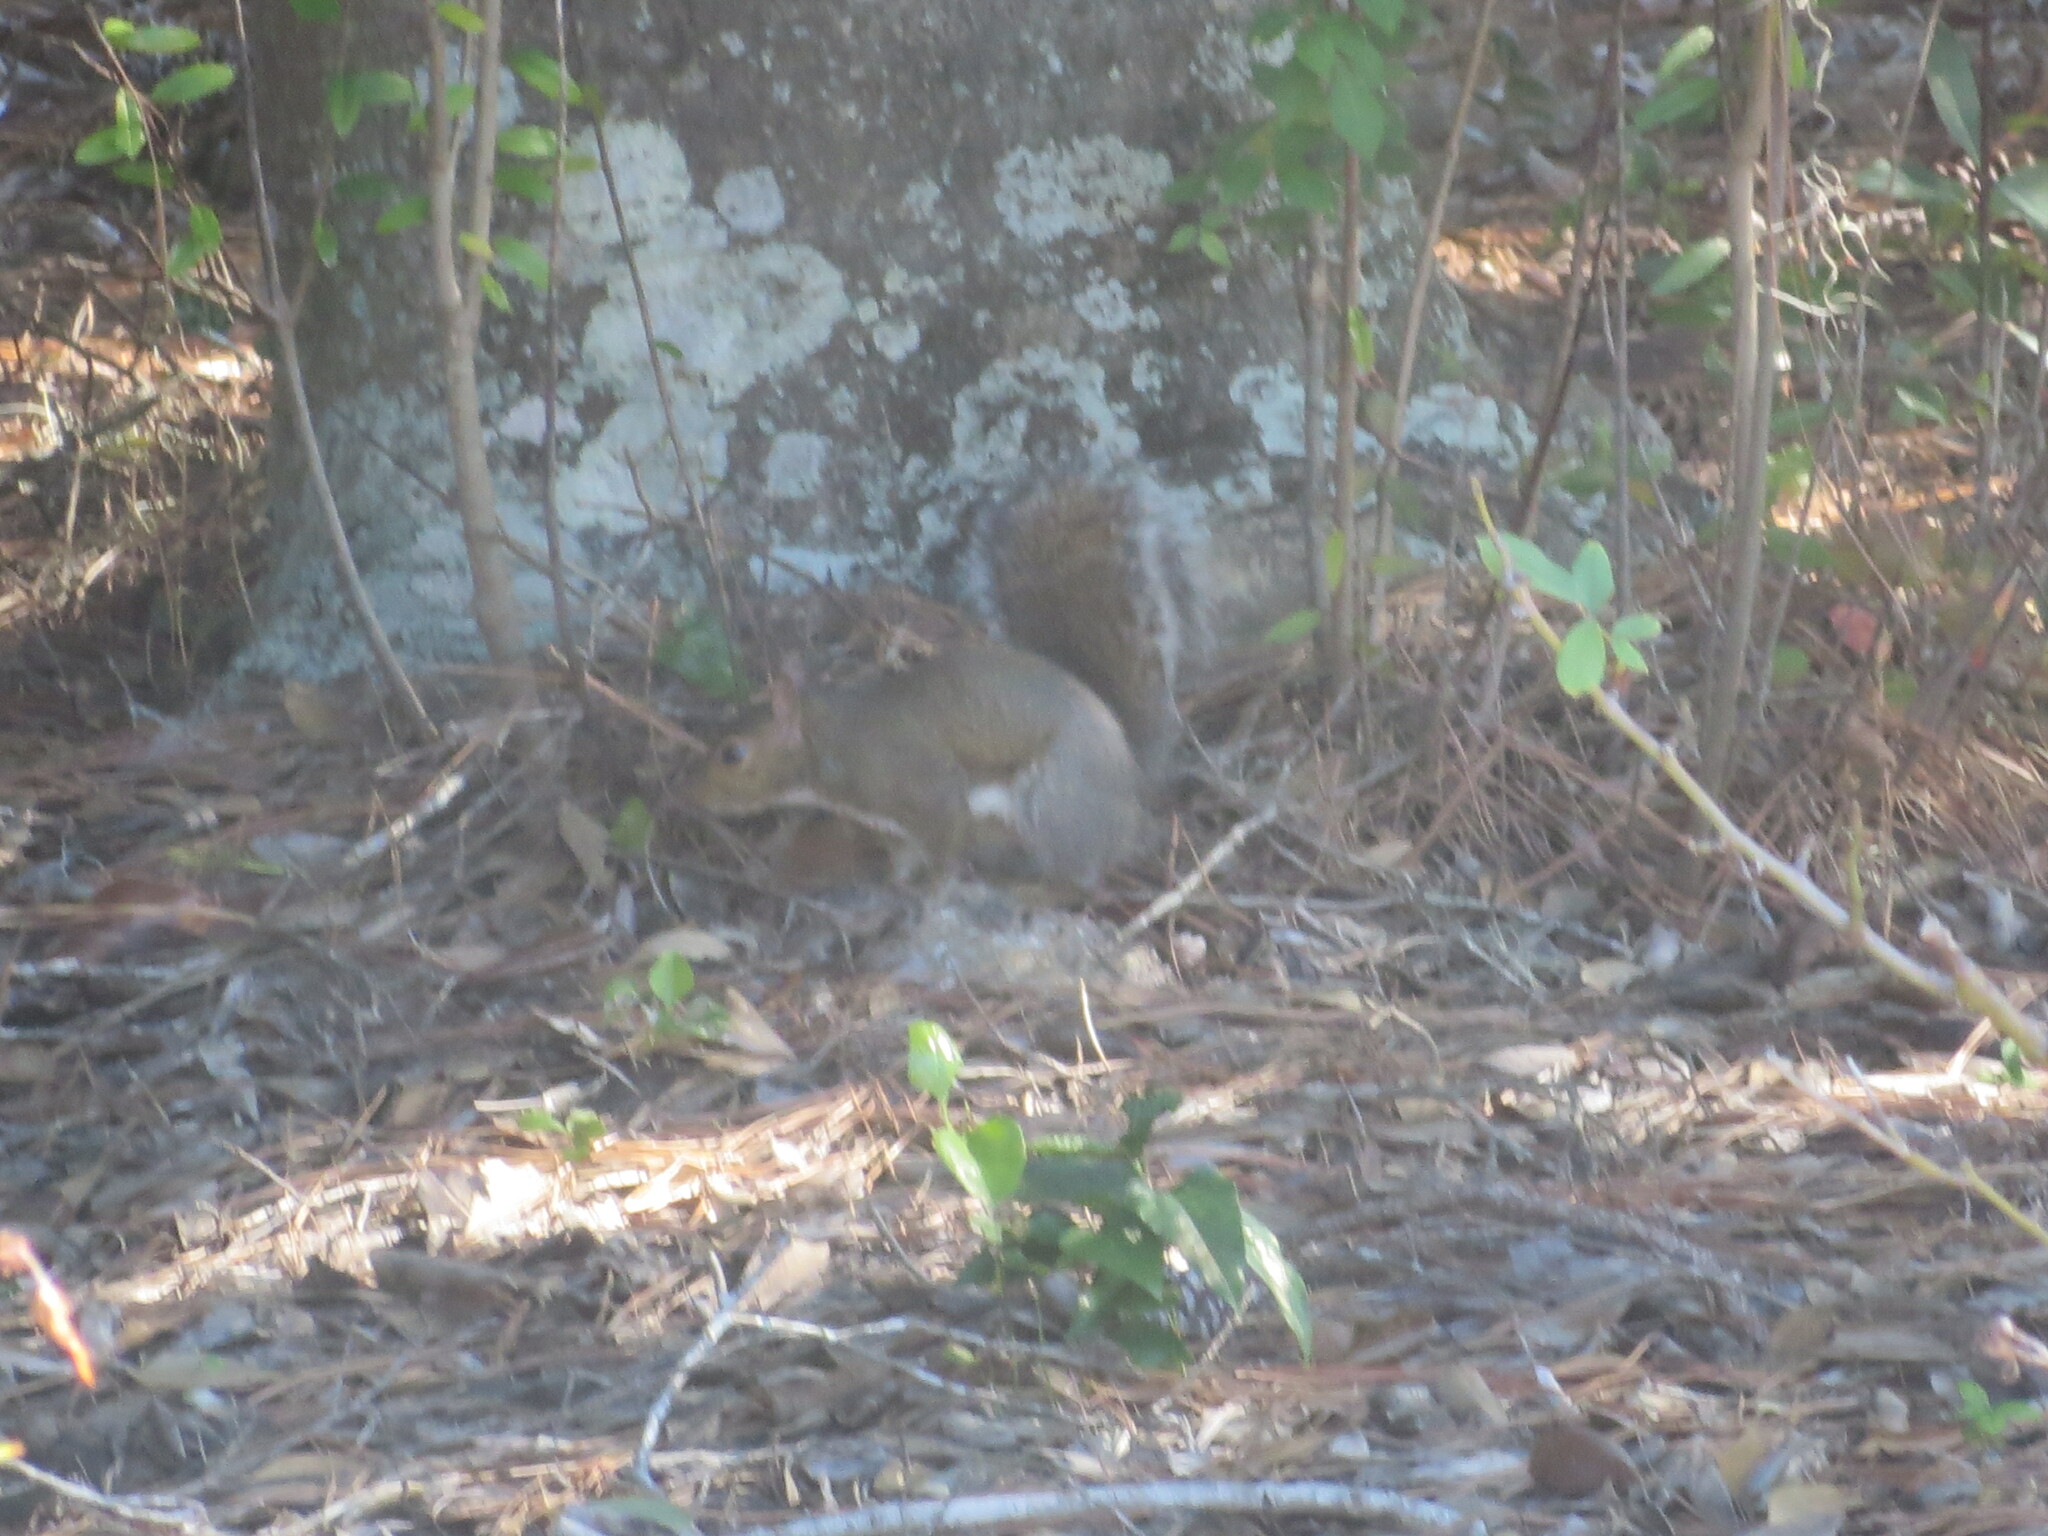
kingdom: Animalia
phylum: Chordata
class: Mammalia
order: Rodentia
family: Sciuridae
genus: Sciurus
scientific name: Sciurus carolinensis
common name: Eastern gray squirrel
